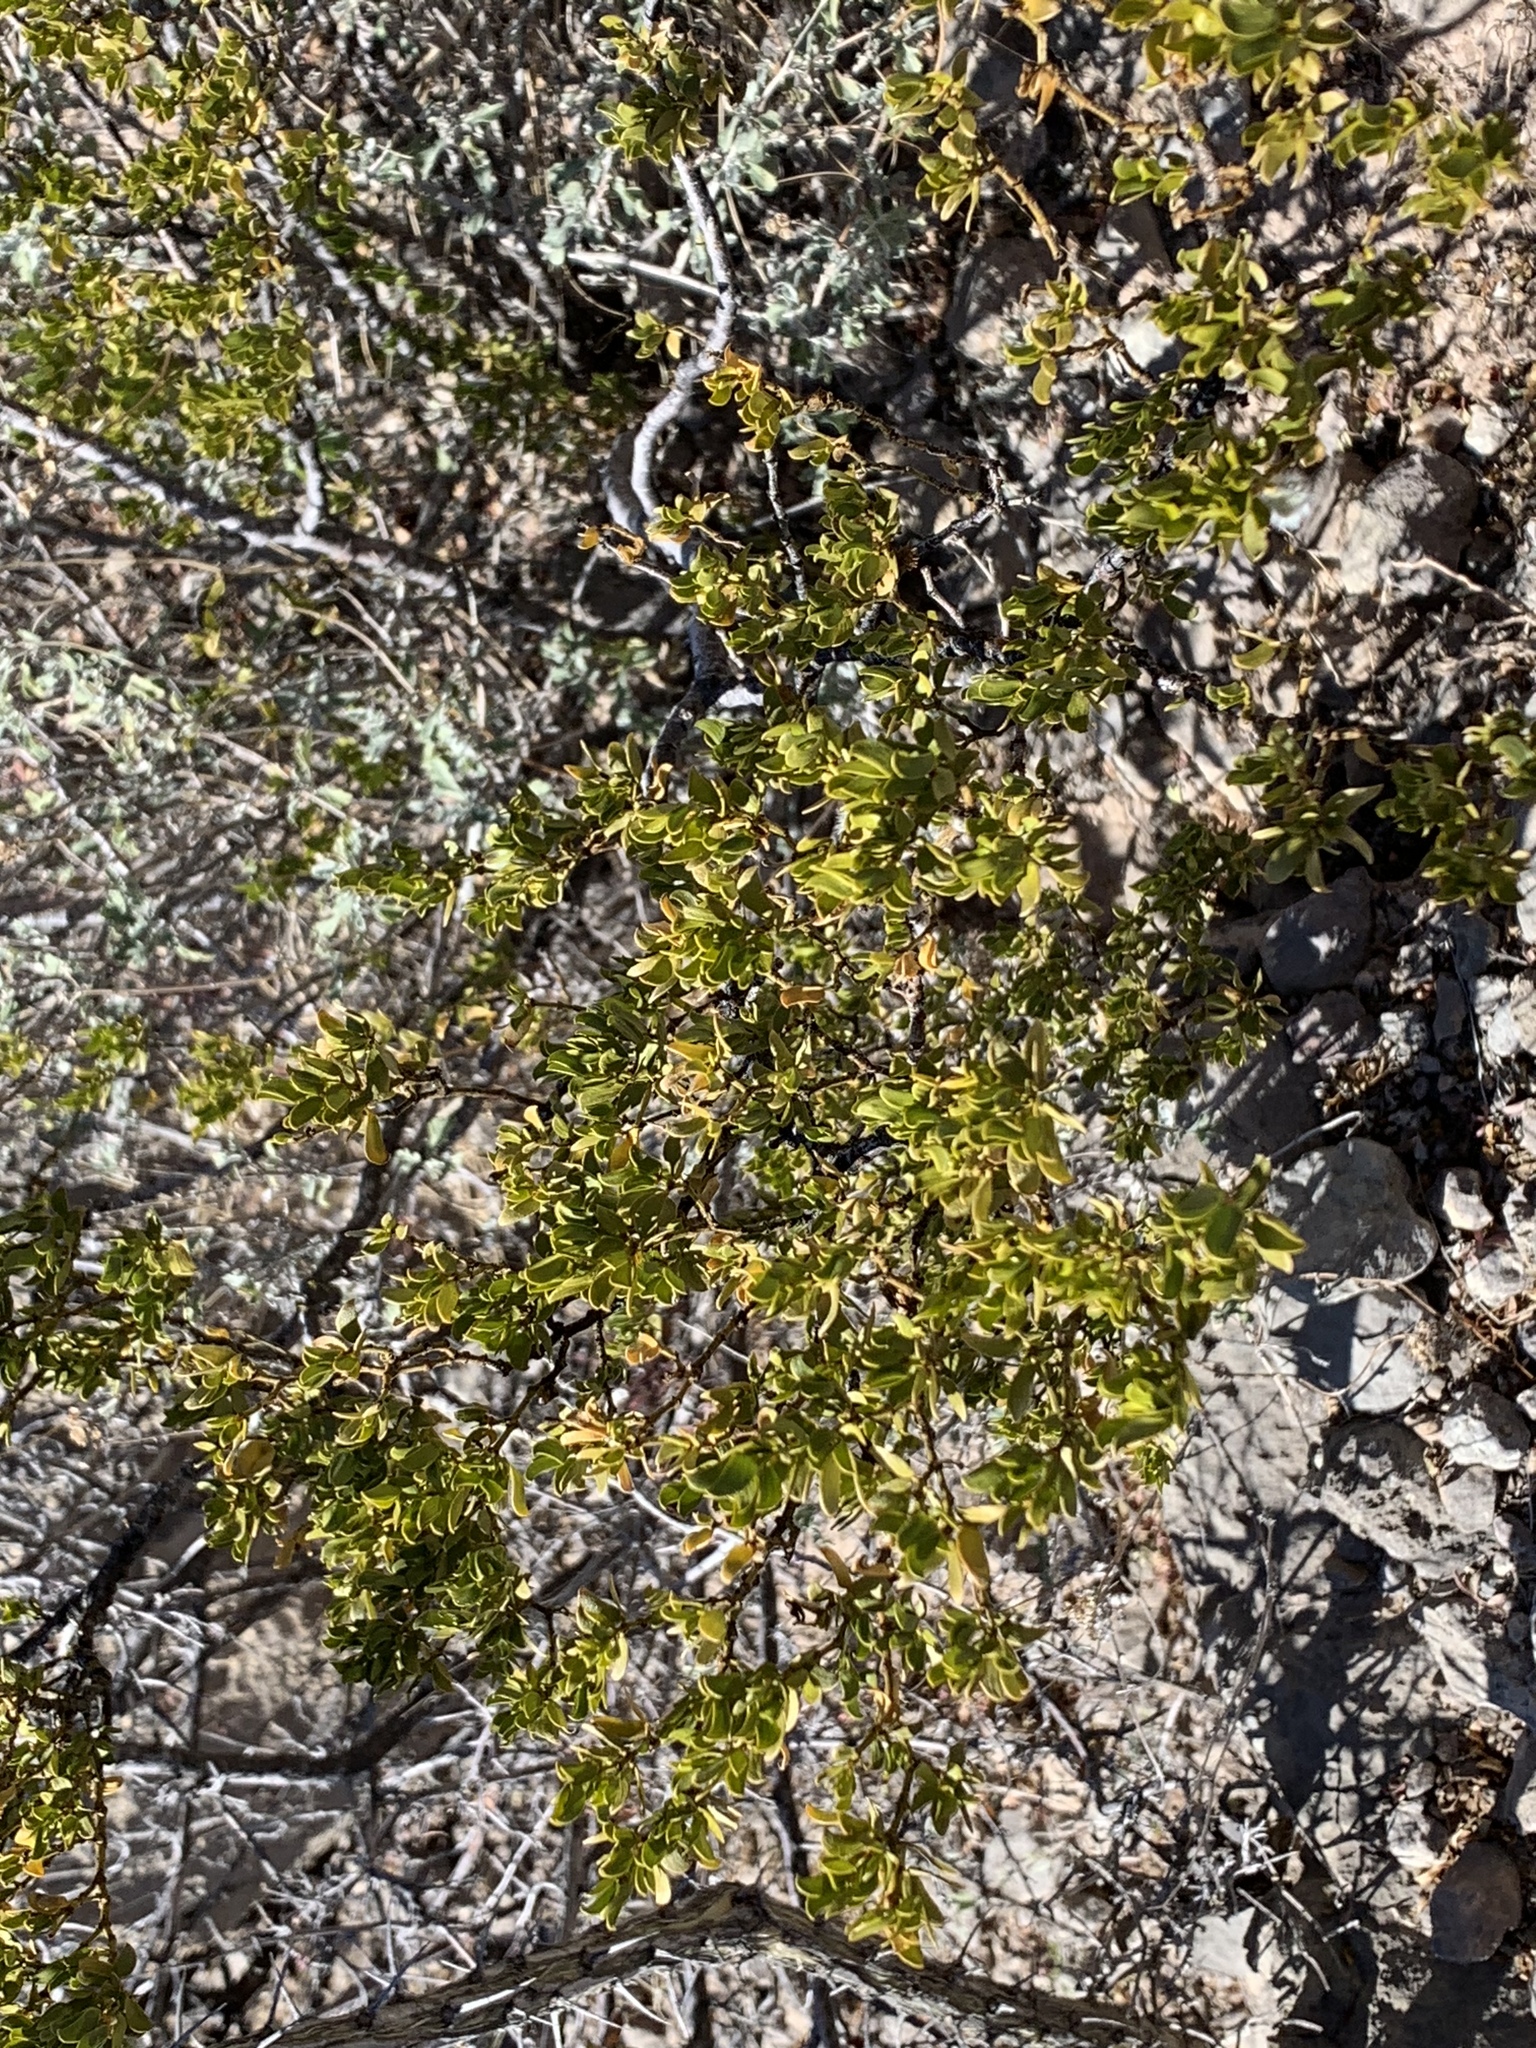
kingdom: Plantae
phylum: Tracheophyta
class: Magnoliopsida
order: Zygophyllales
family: Zygophyllaceae
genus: Larrea
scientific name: Larrea tridentata
